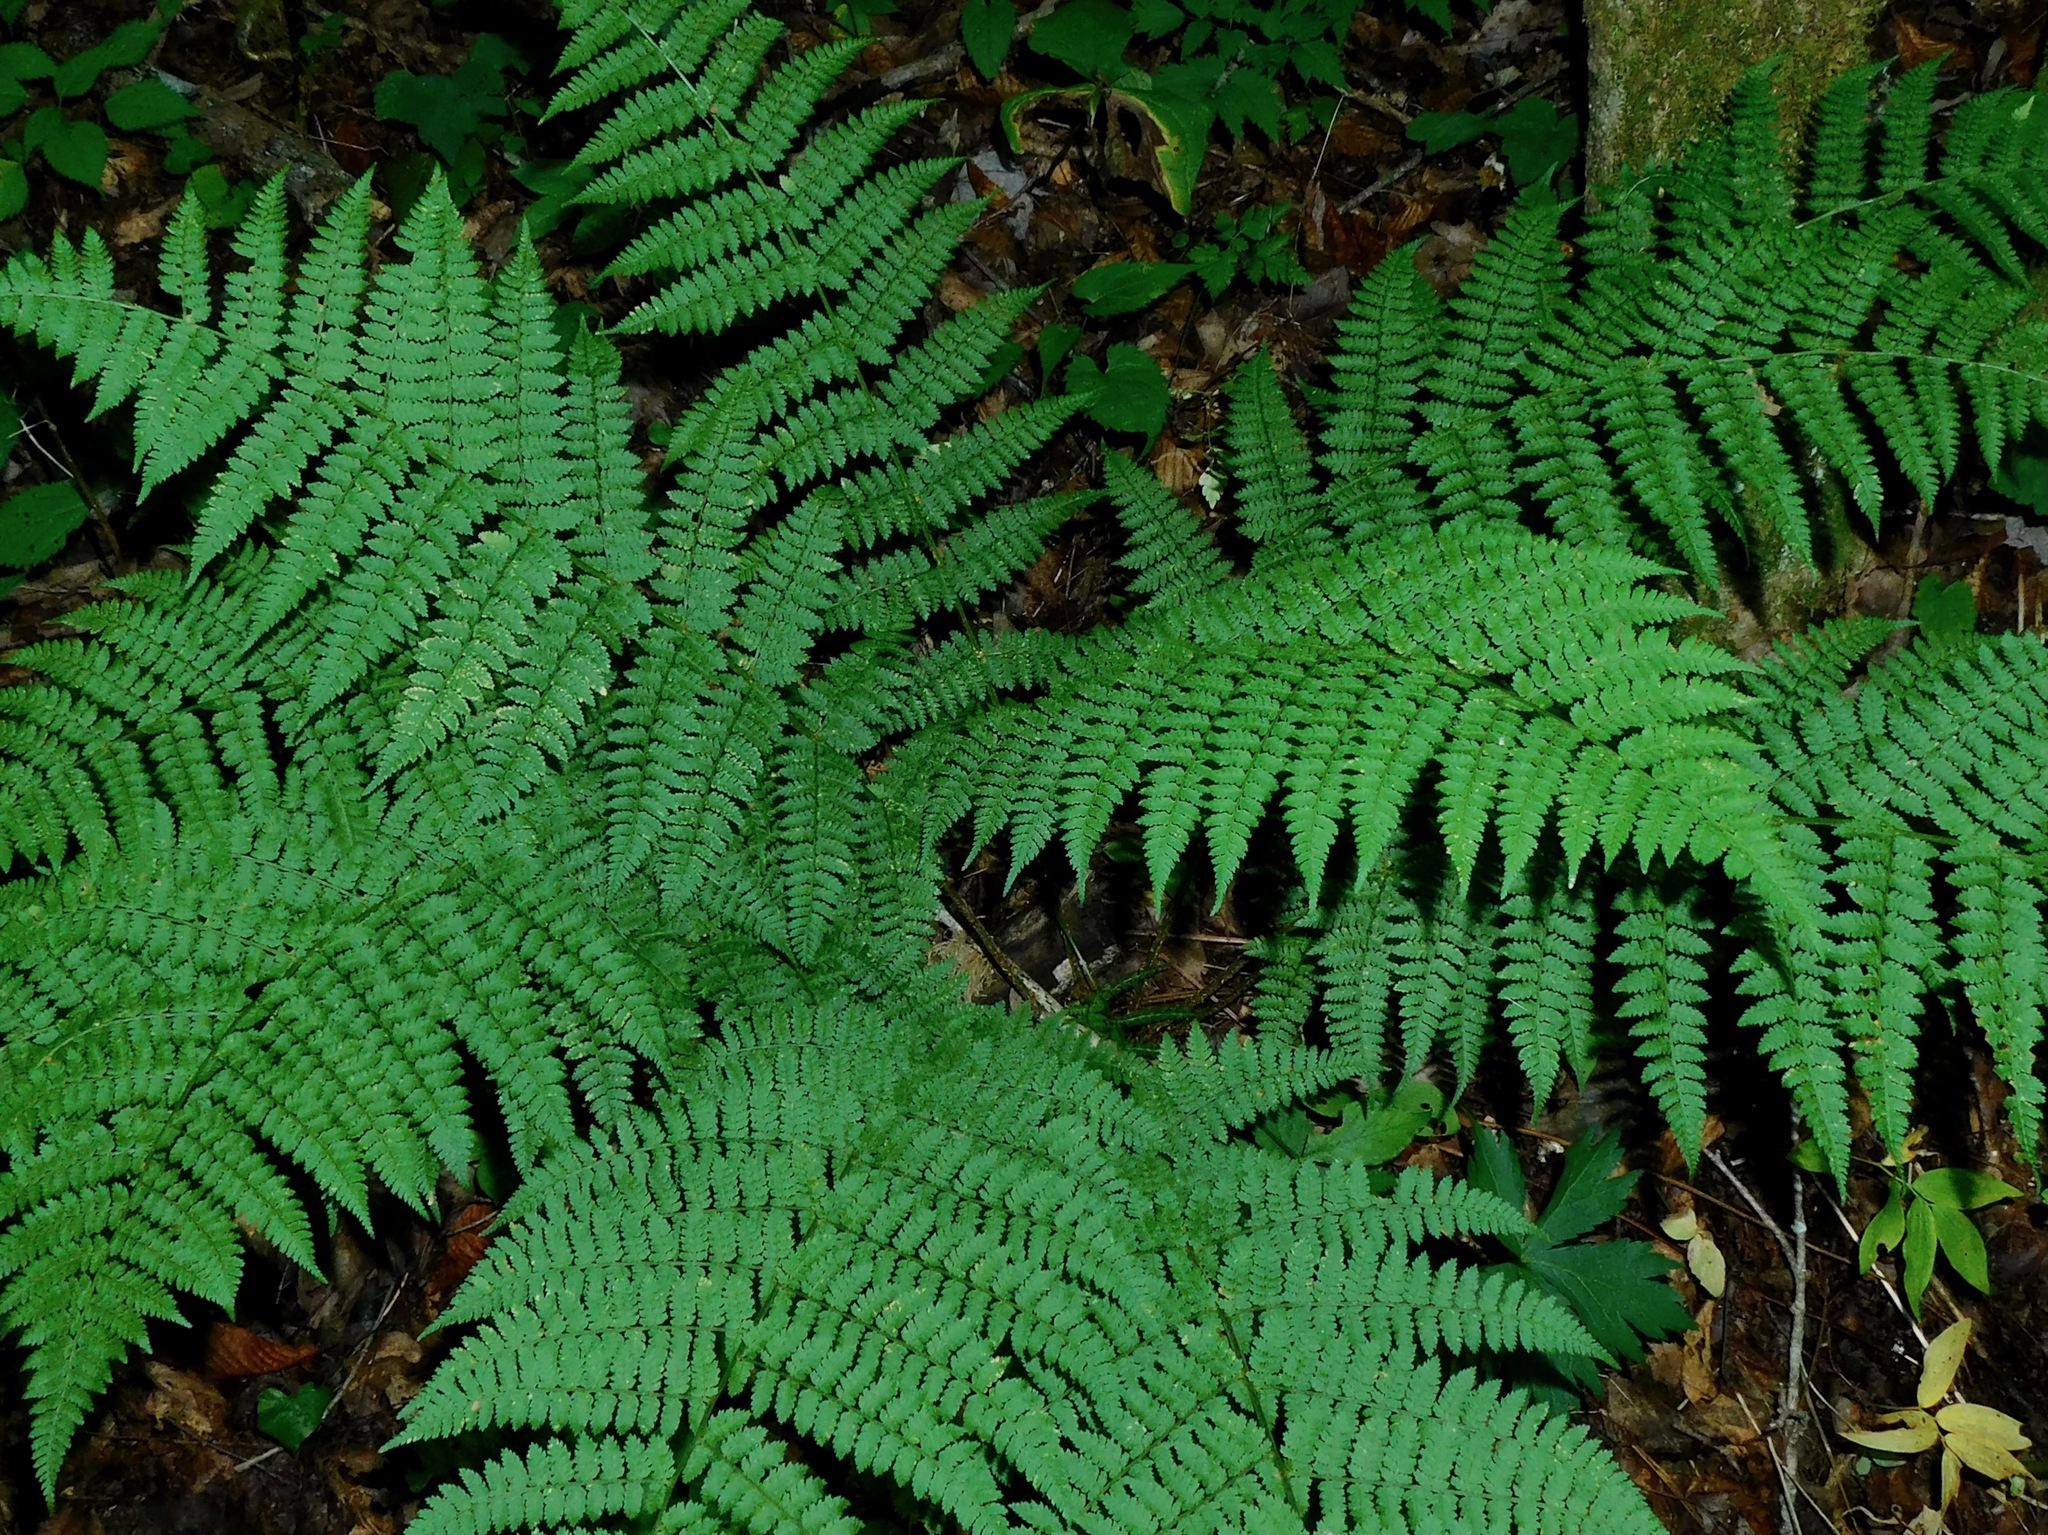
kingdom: Plantae
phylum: Tracheophyta
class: Polypodiopsida
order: Polypodiales
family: Dryopteridaceae
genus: Dryopteris
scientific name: Dryopteris intermedia
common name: Evergreen wood fern
